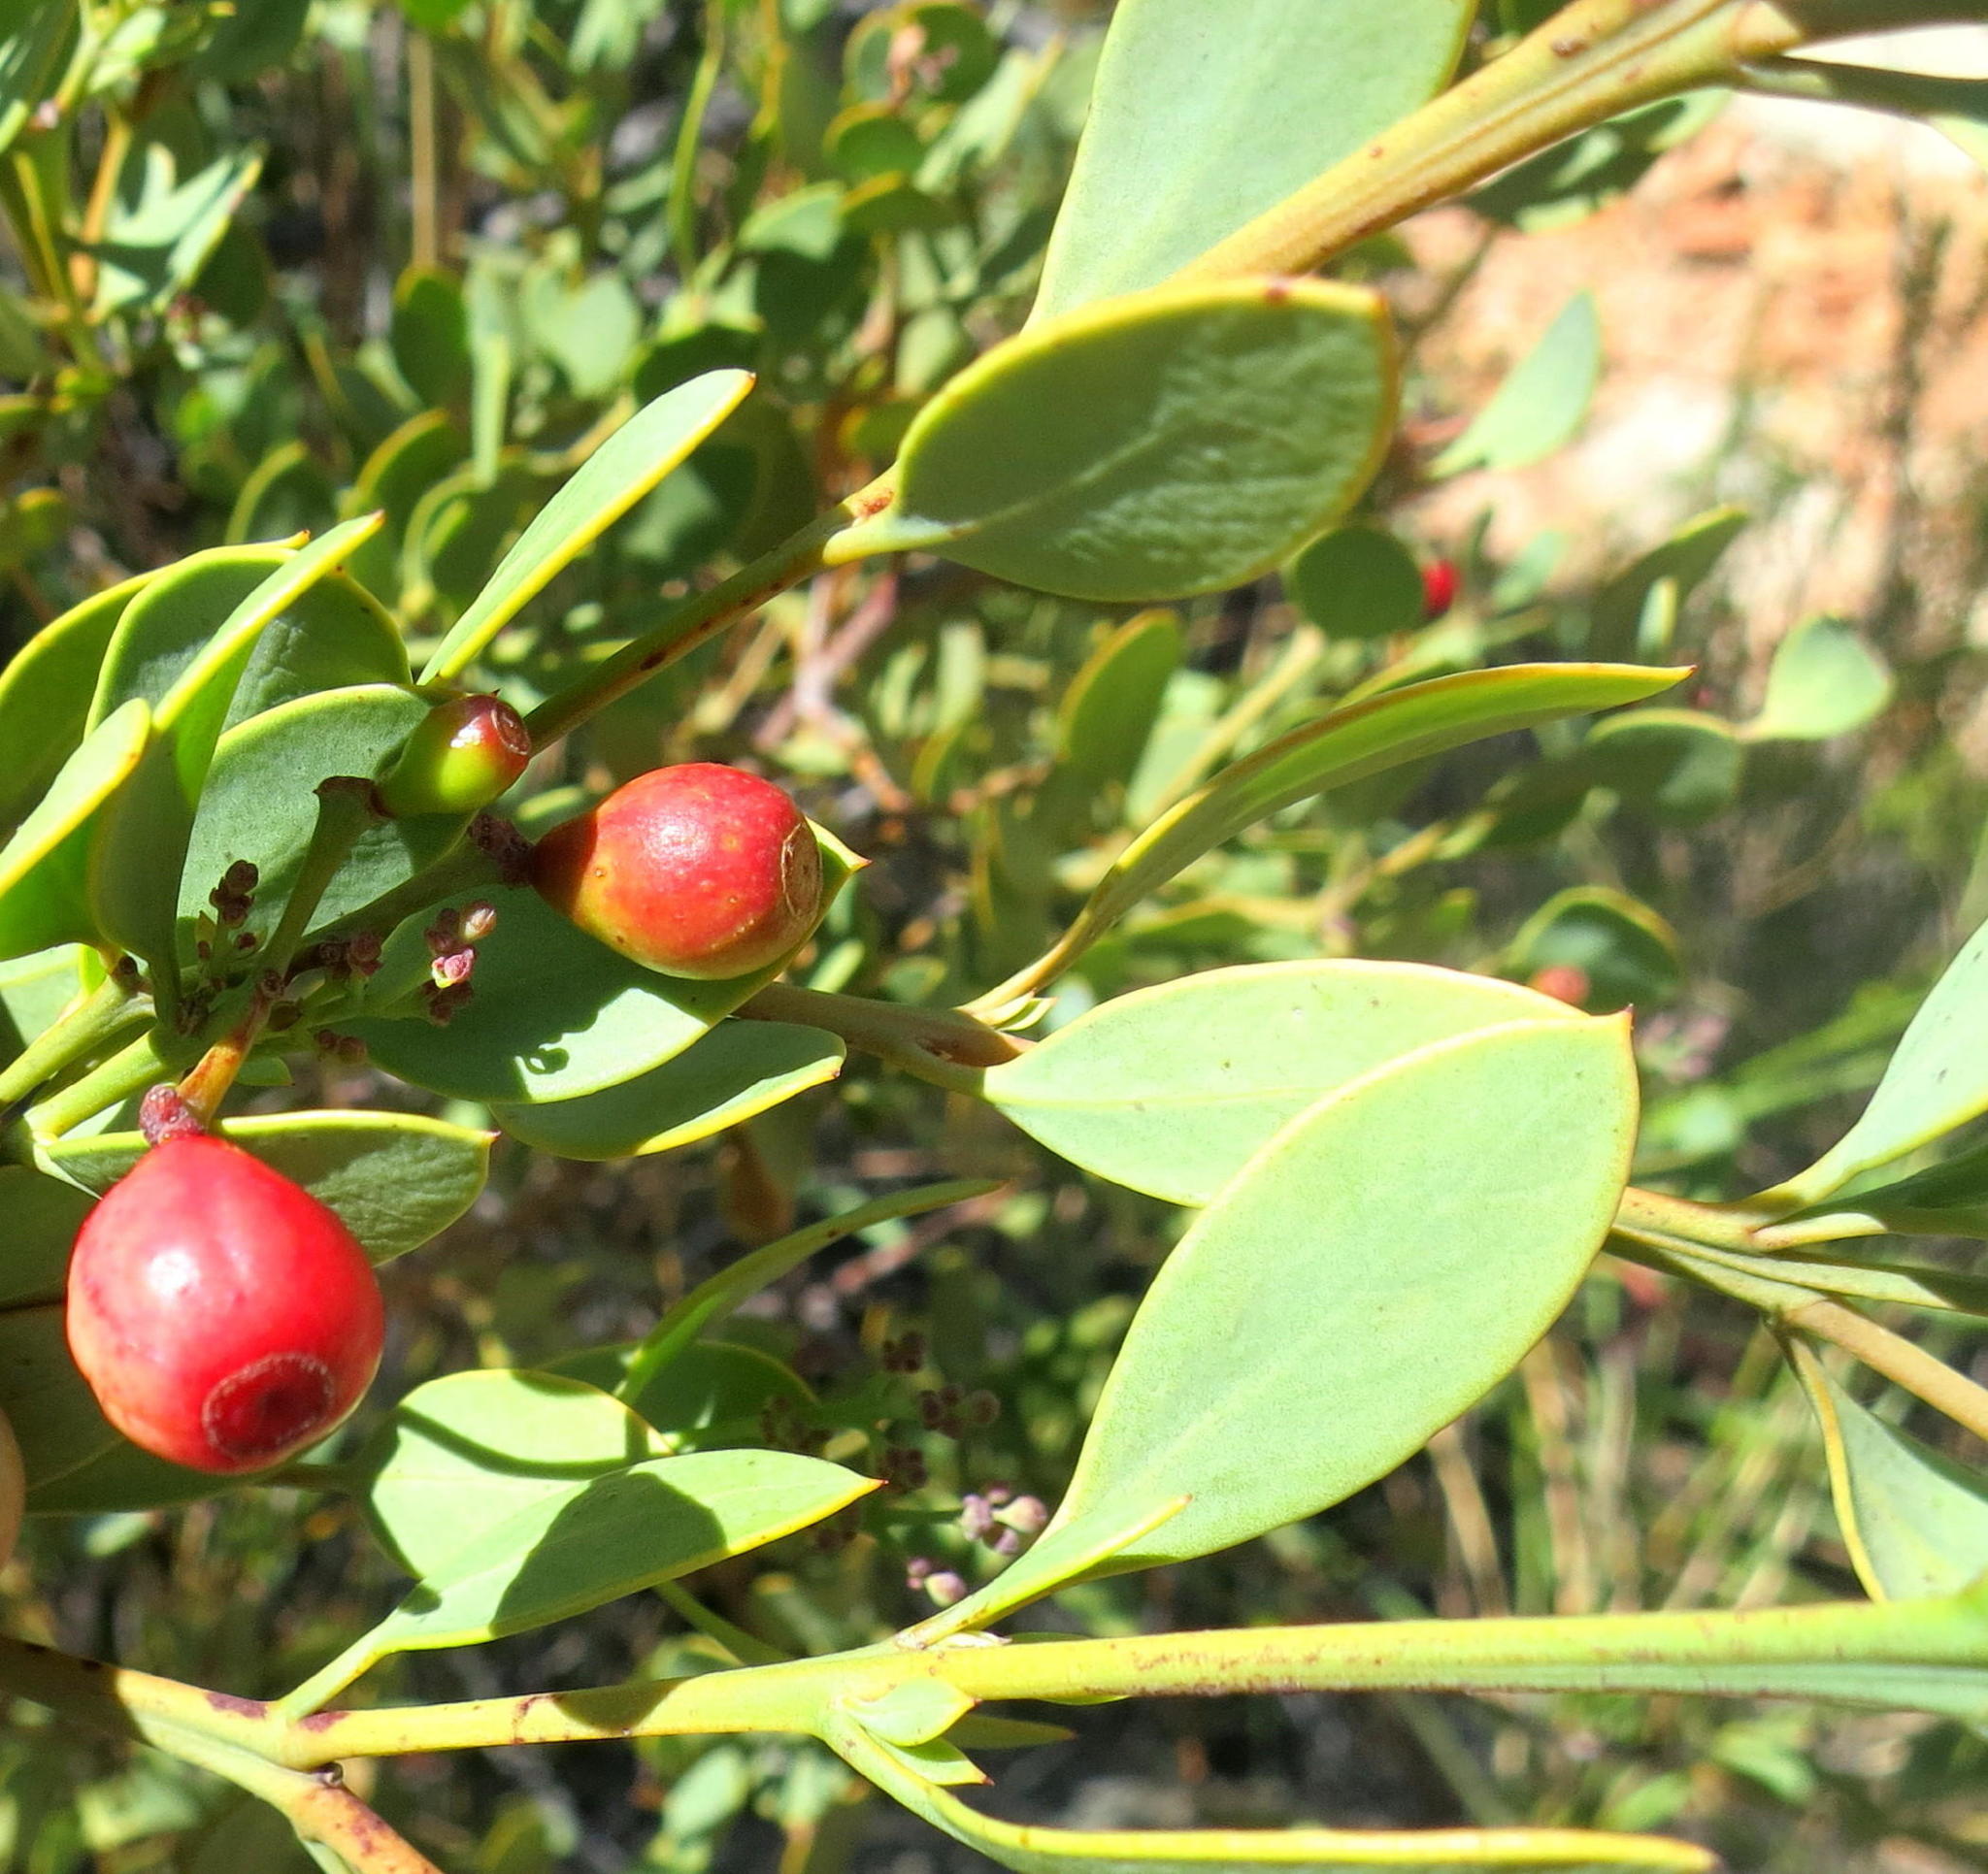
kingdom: Plantae
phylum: Tracheophyta
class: Magnoliopsida
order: Santalales
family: Santalaceae
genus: Osyris
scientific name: Osyris compressa
